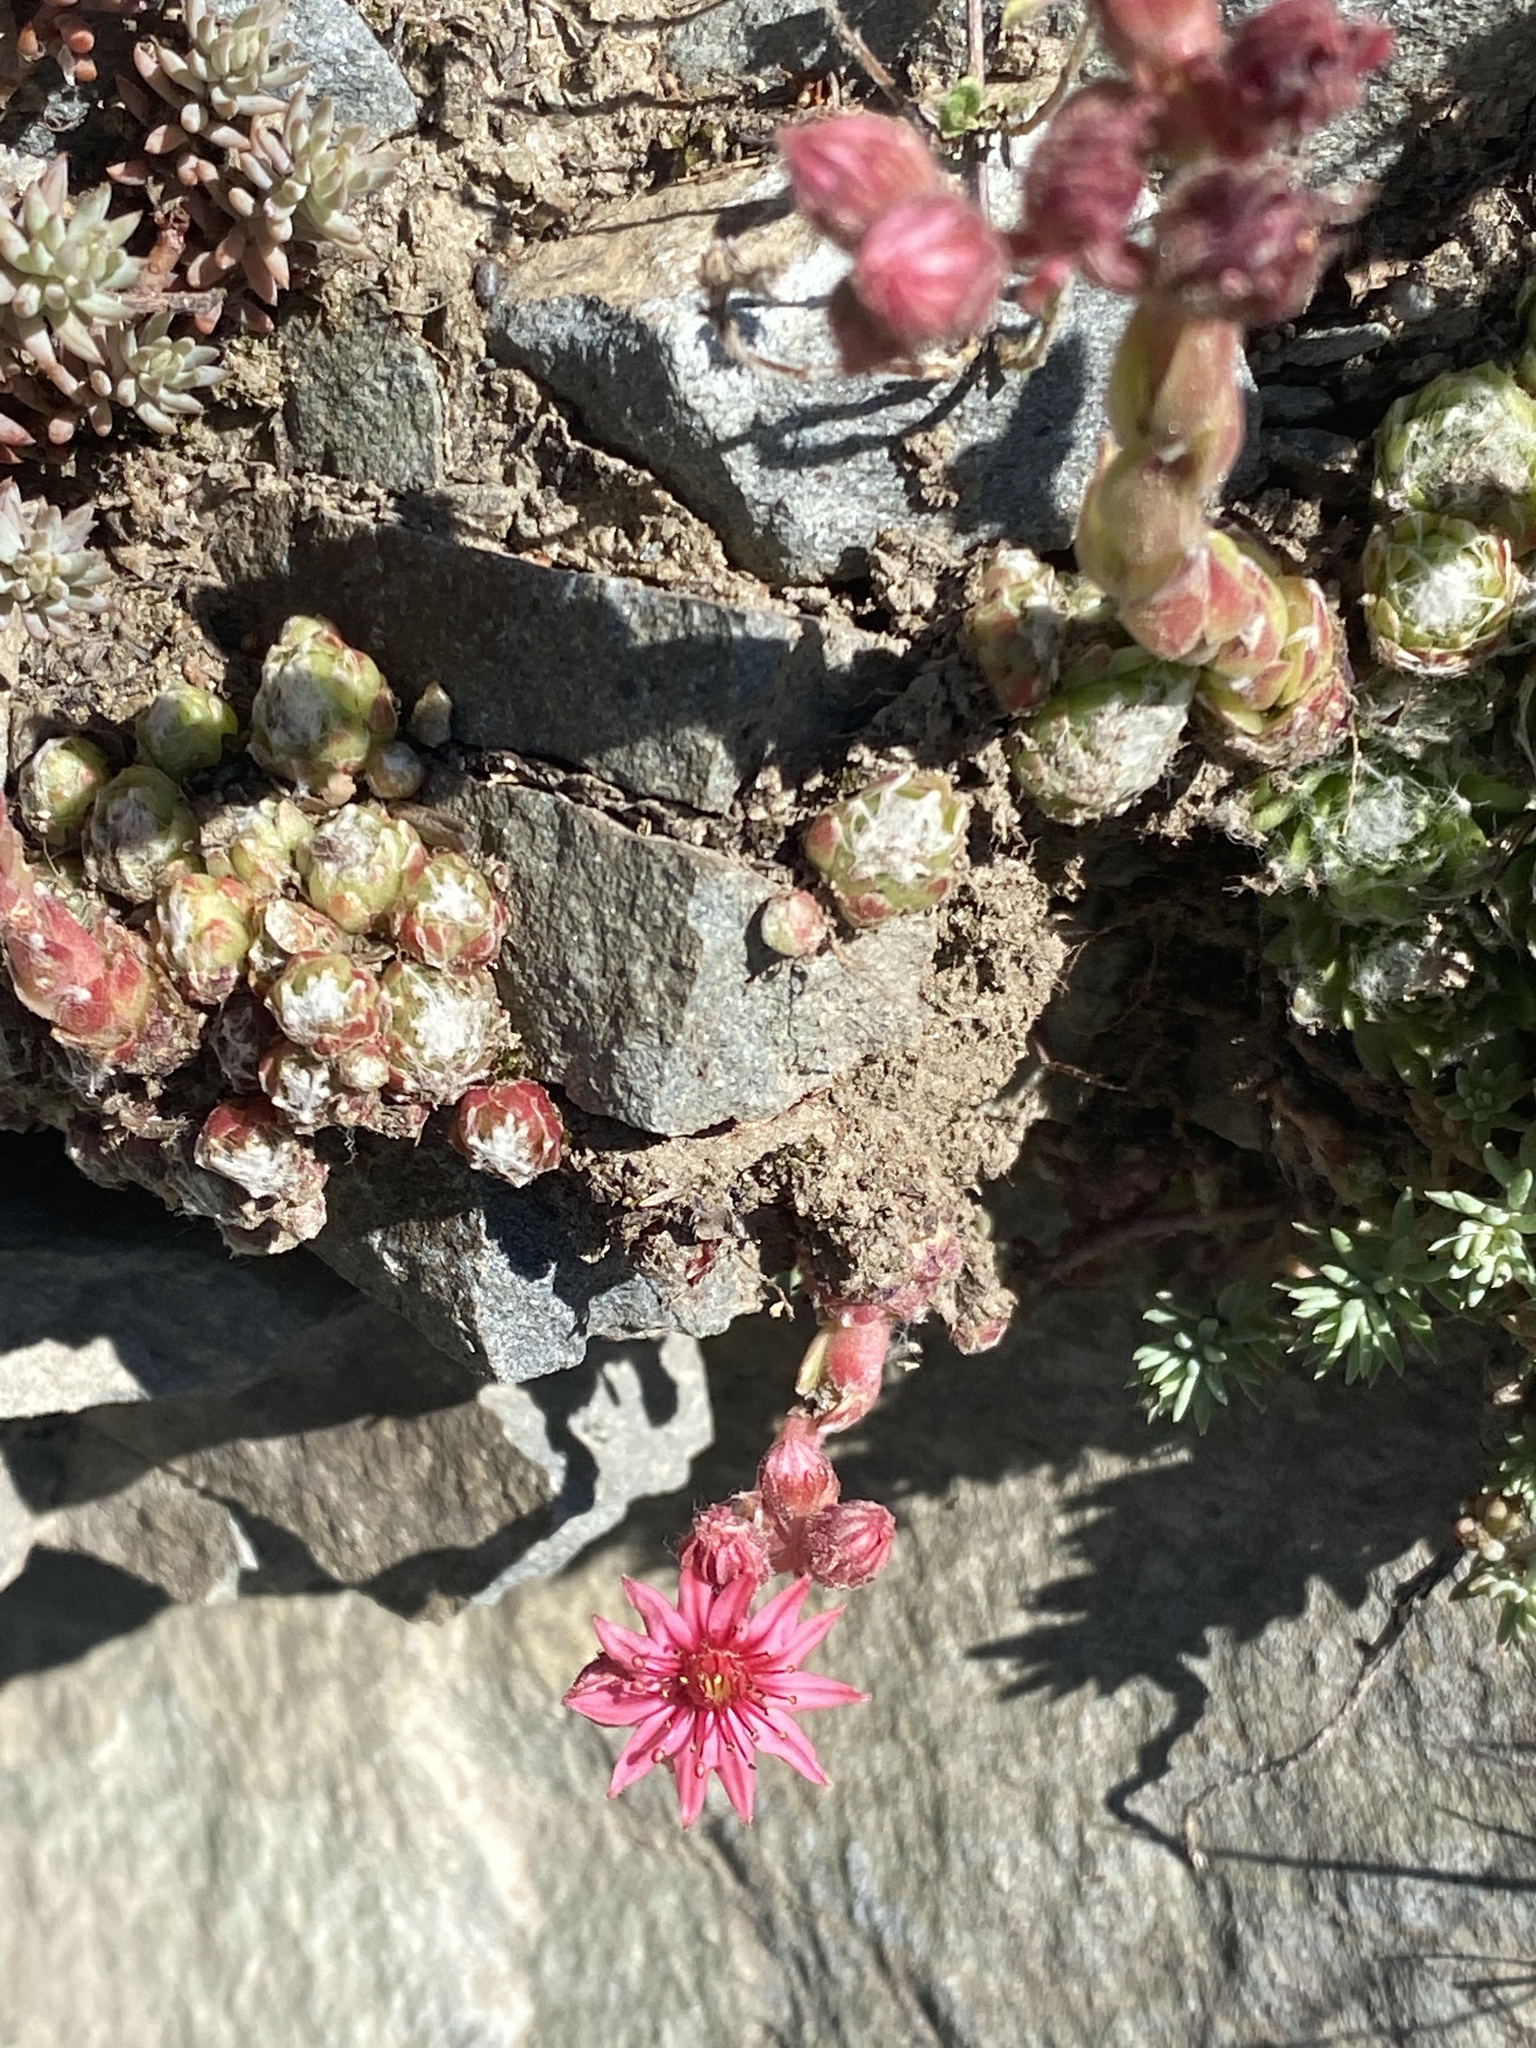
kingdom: Plantae
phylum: Tracheophyta
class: Magnoliopsida
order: Saxifragales
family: Crassulaceae
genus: Sempervivum
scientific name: Sempervivum arachnoideum
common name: Cobweb house-leek
